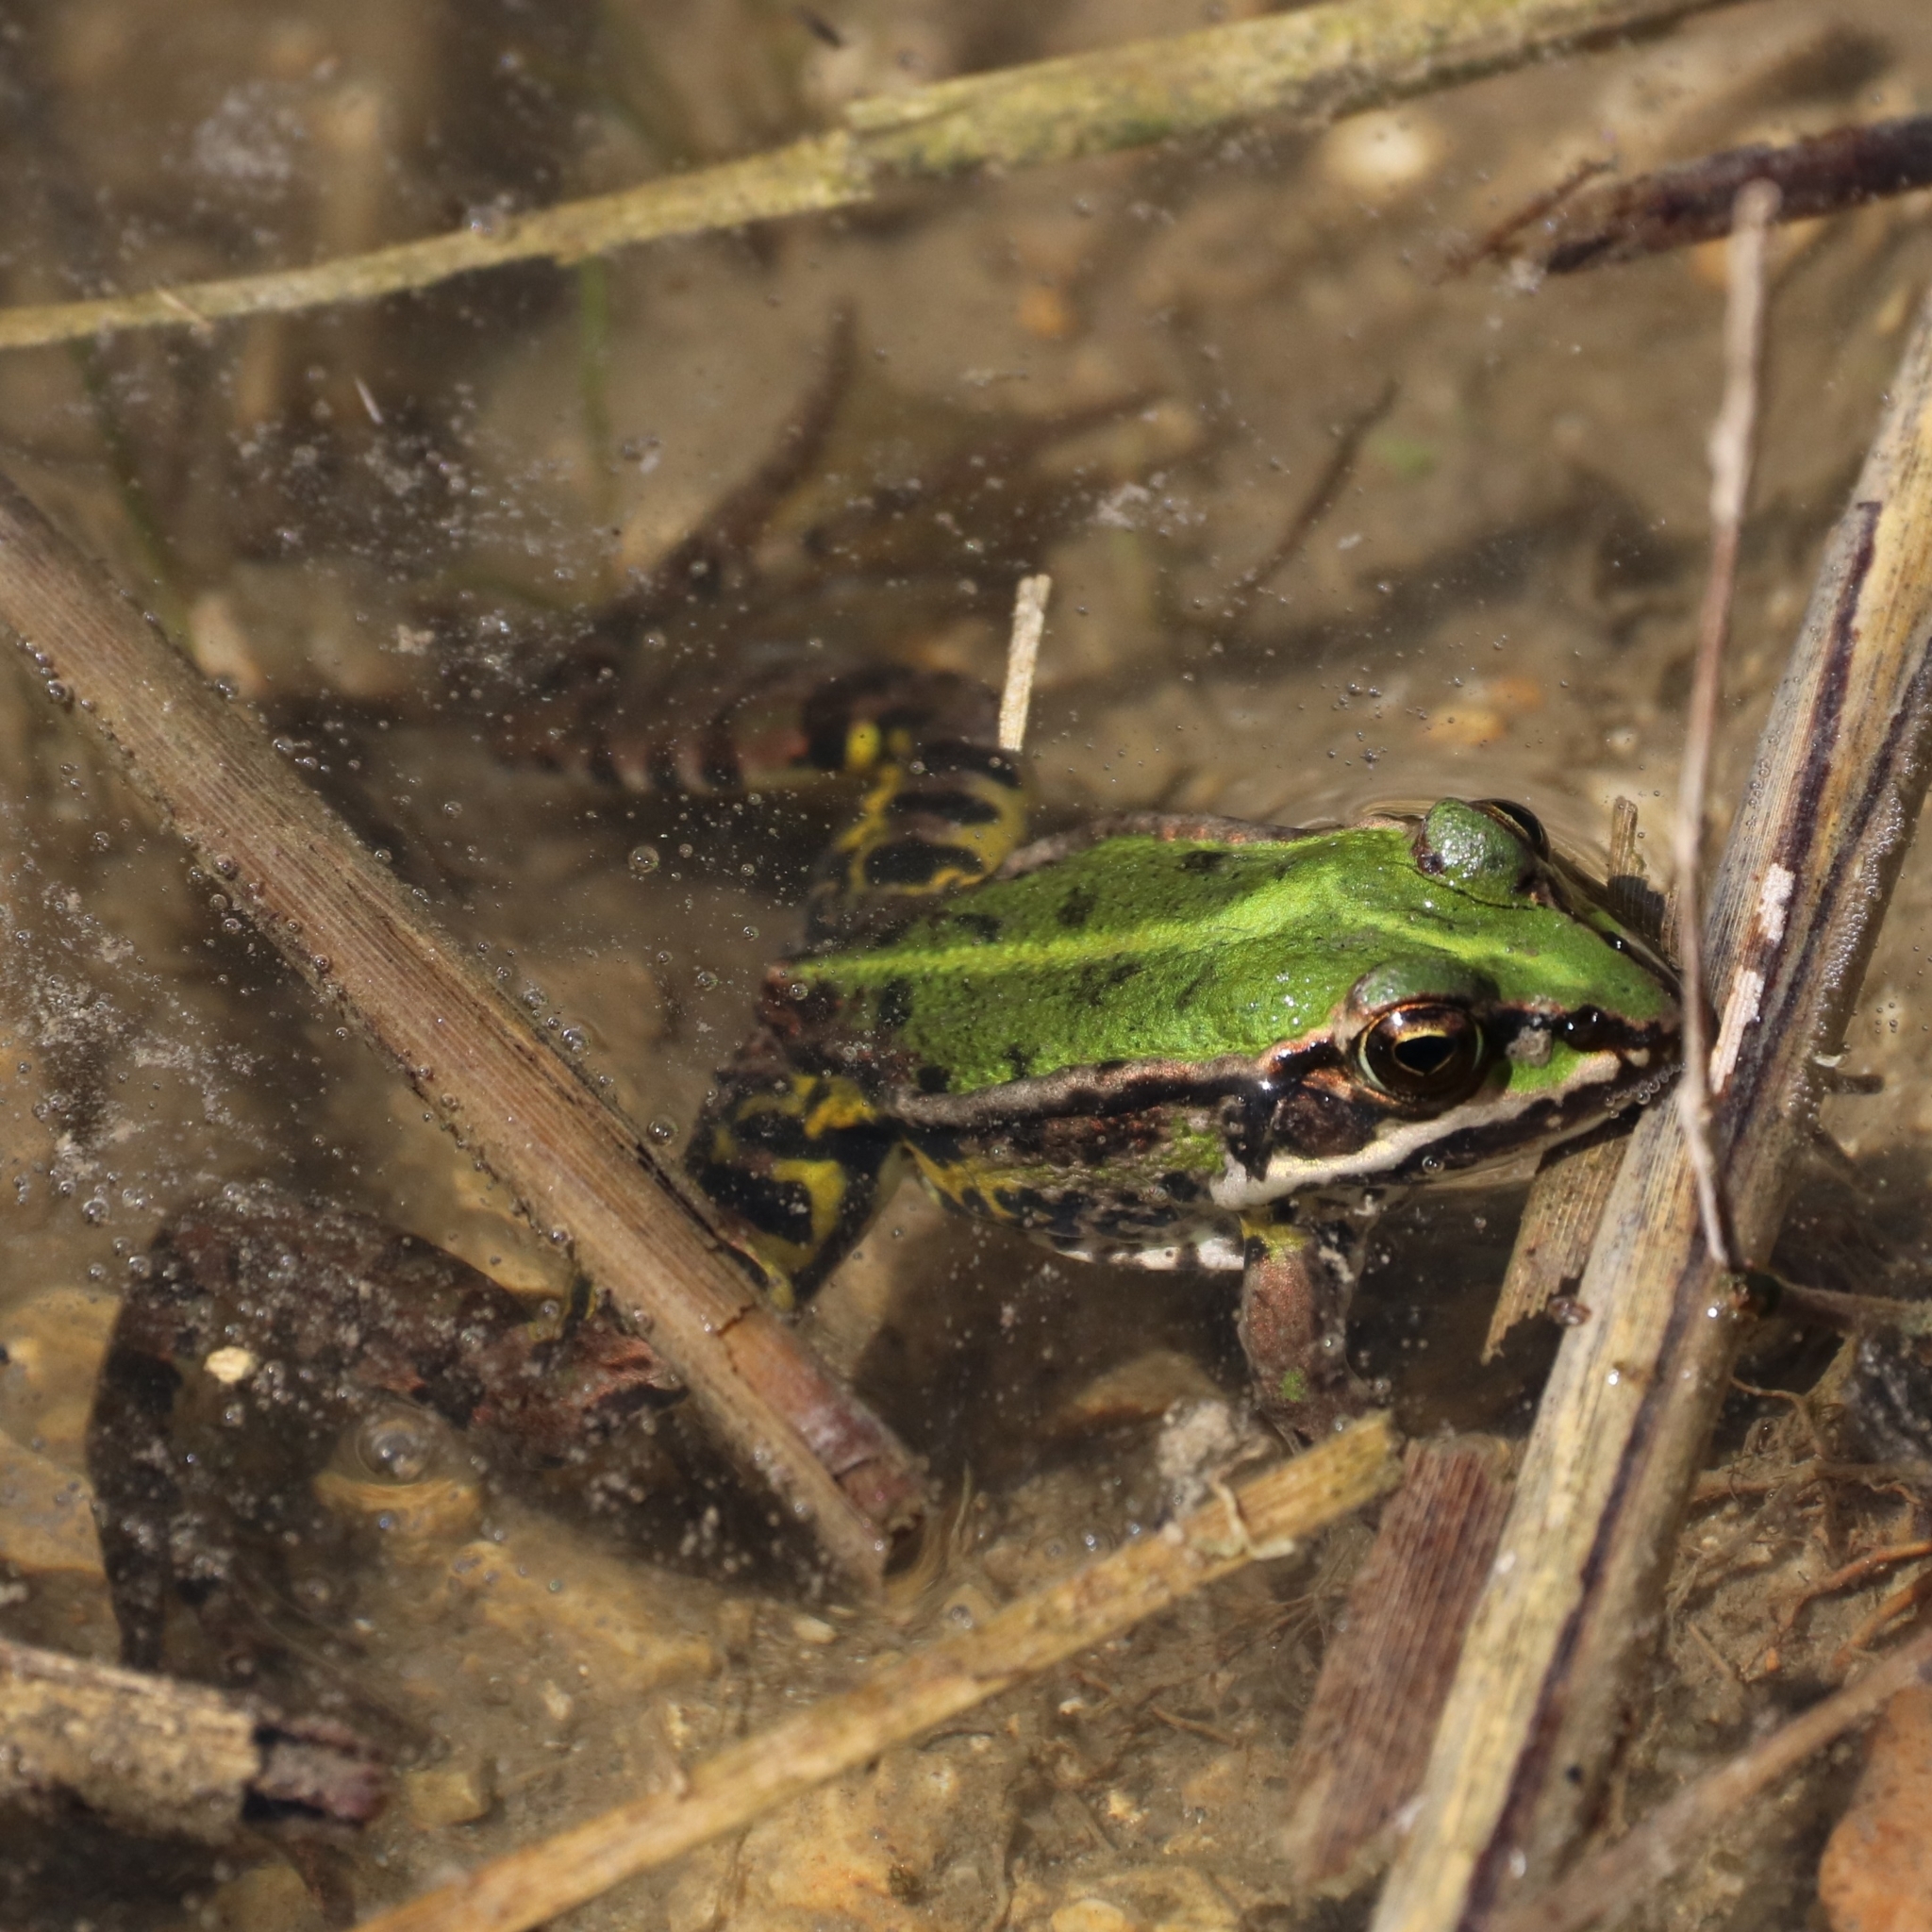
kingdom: Animalia
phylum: Chordata
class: Amphibia
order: Anura
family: Ranidae
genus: Pelophylax
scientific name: Pelophylax
